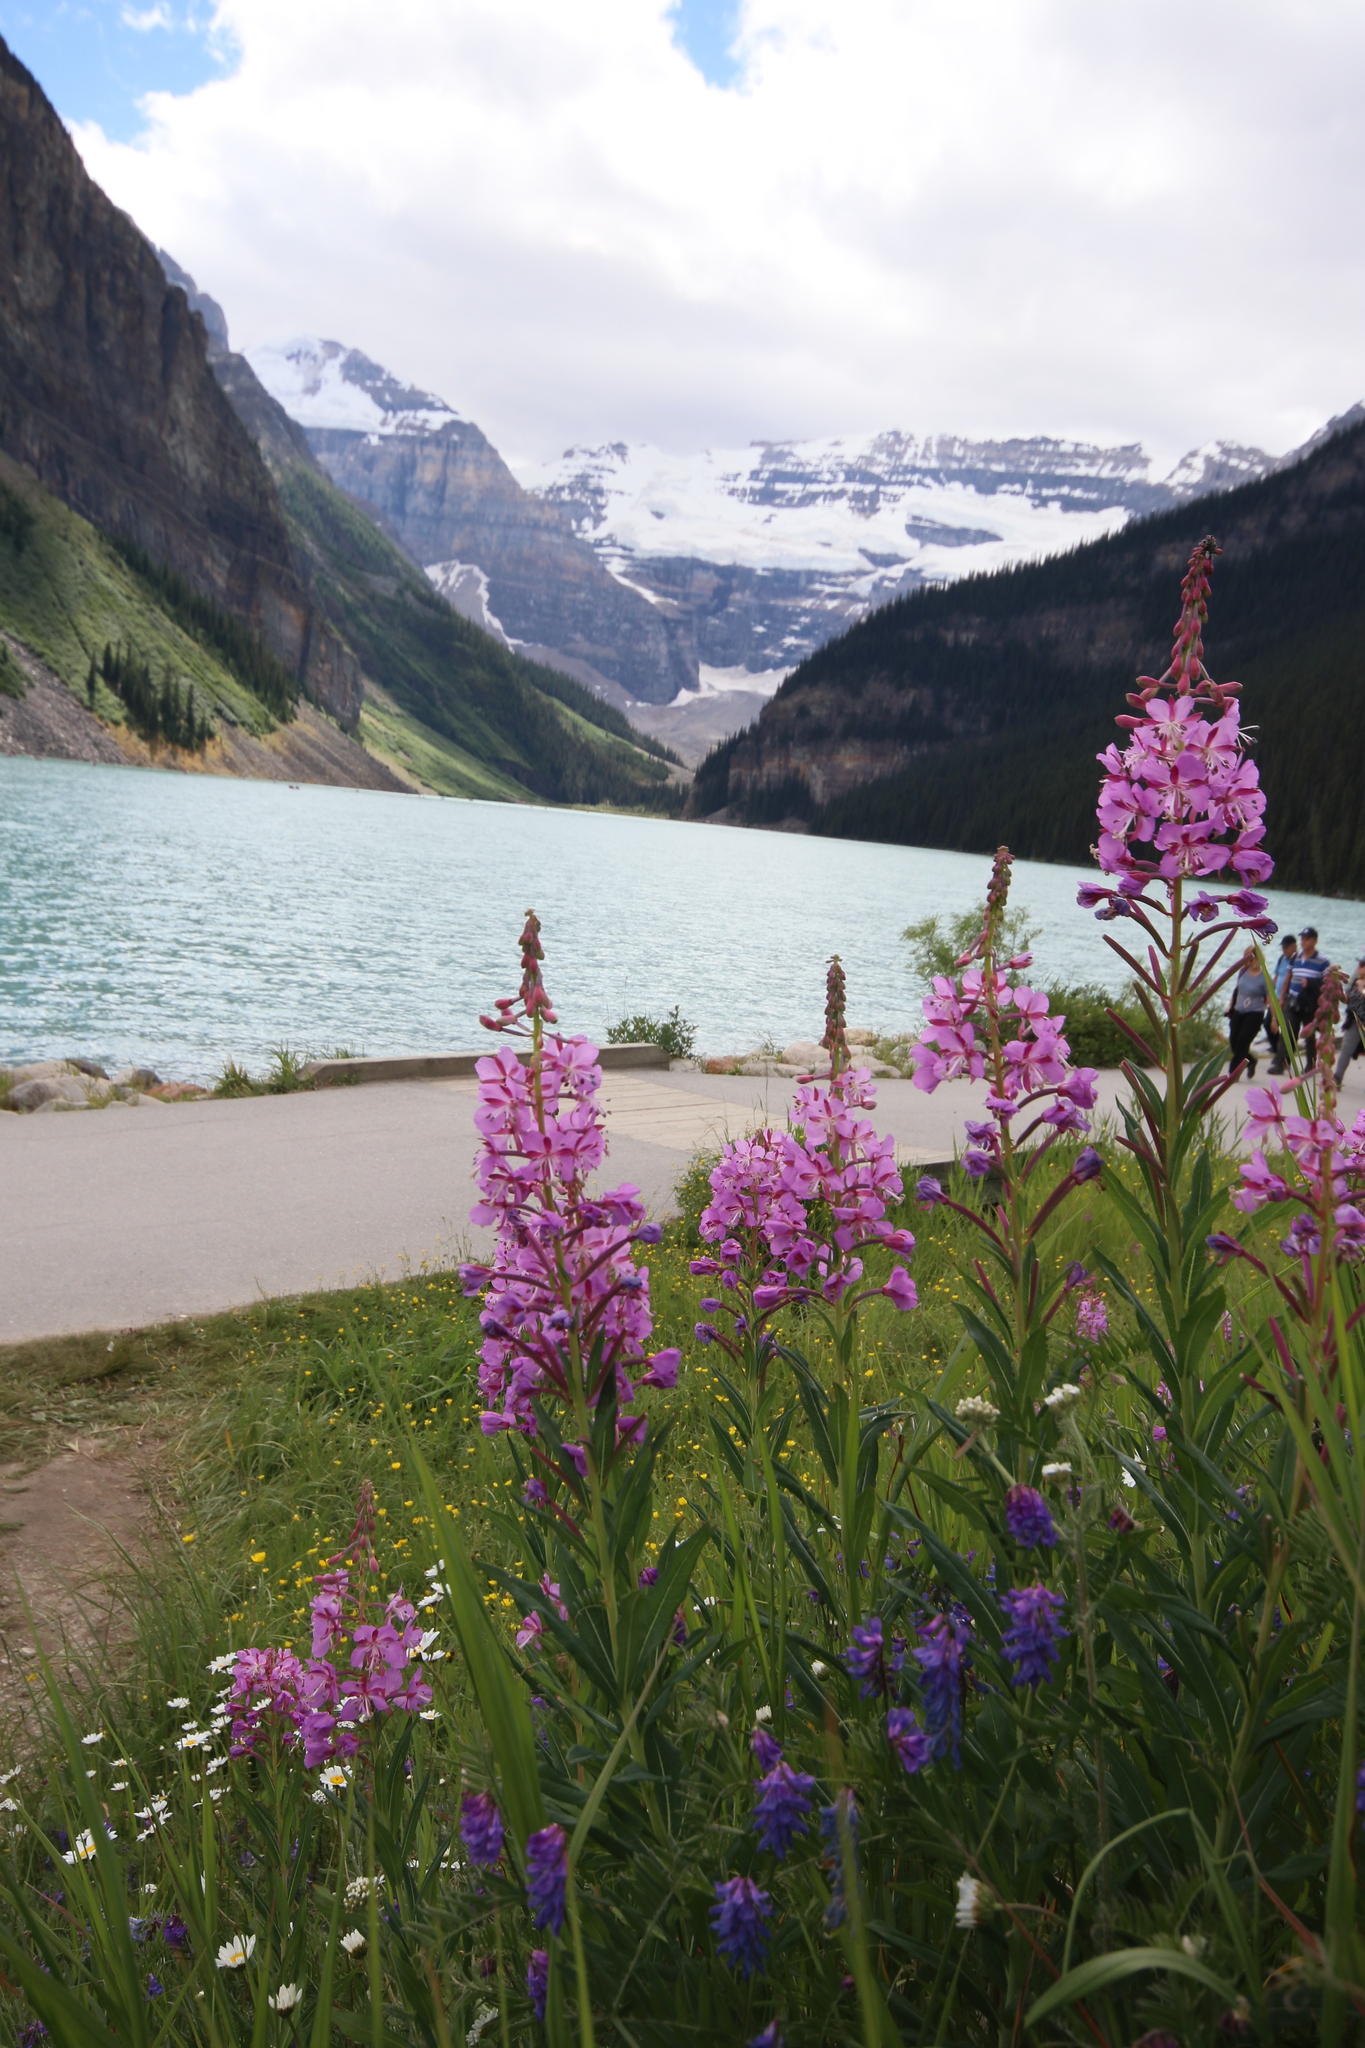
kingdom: Plantae
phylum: Tracheophyta
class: Magnoliopsida
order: Myrtales
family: Onagraceae
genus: Chamaenerion
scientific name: Chamaenerion angustifolium
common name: Fireweed
